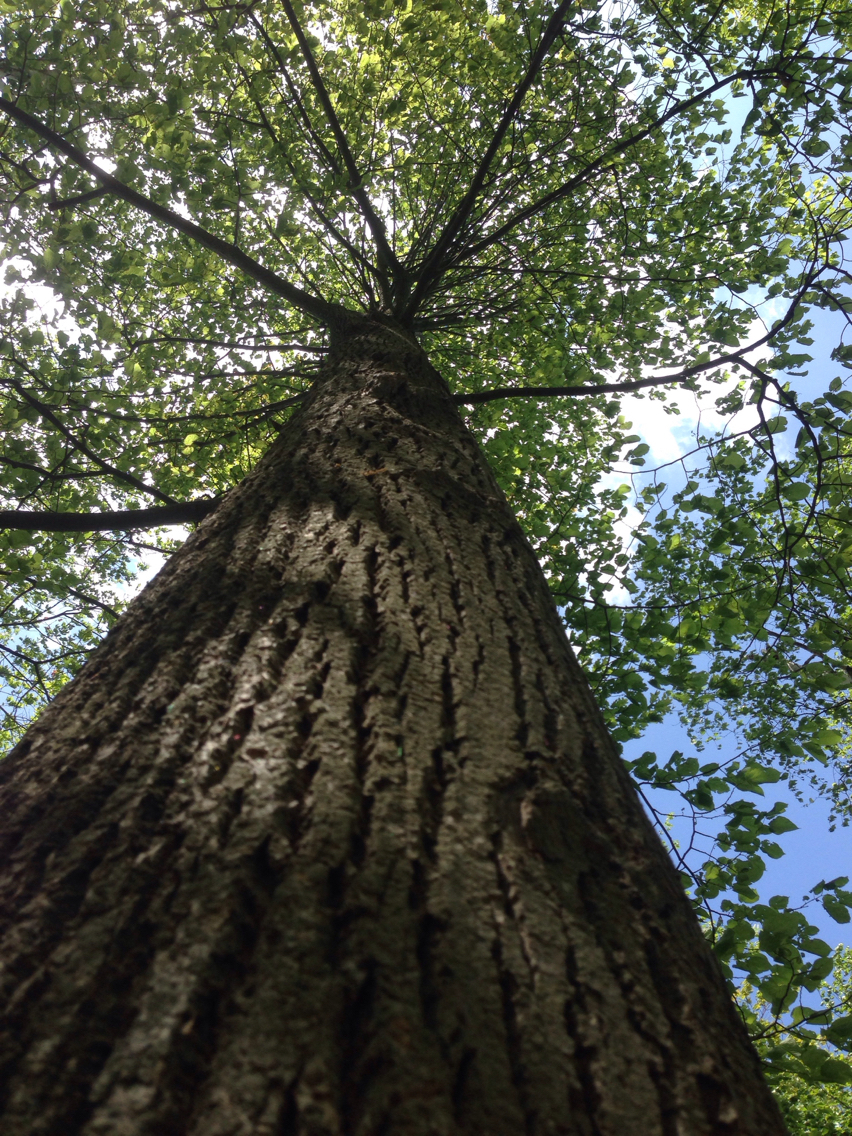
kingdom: Plantae
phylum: Tracheophyta
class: Magnoliopsida
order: Malvales
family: Malvaceae
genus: Tilia
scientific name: Tilia americana
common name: Basswood
